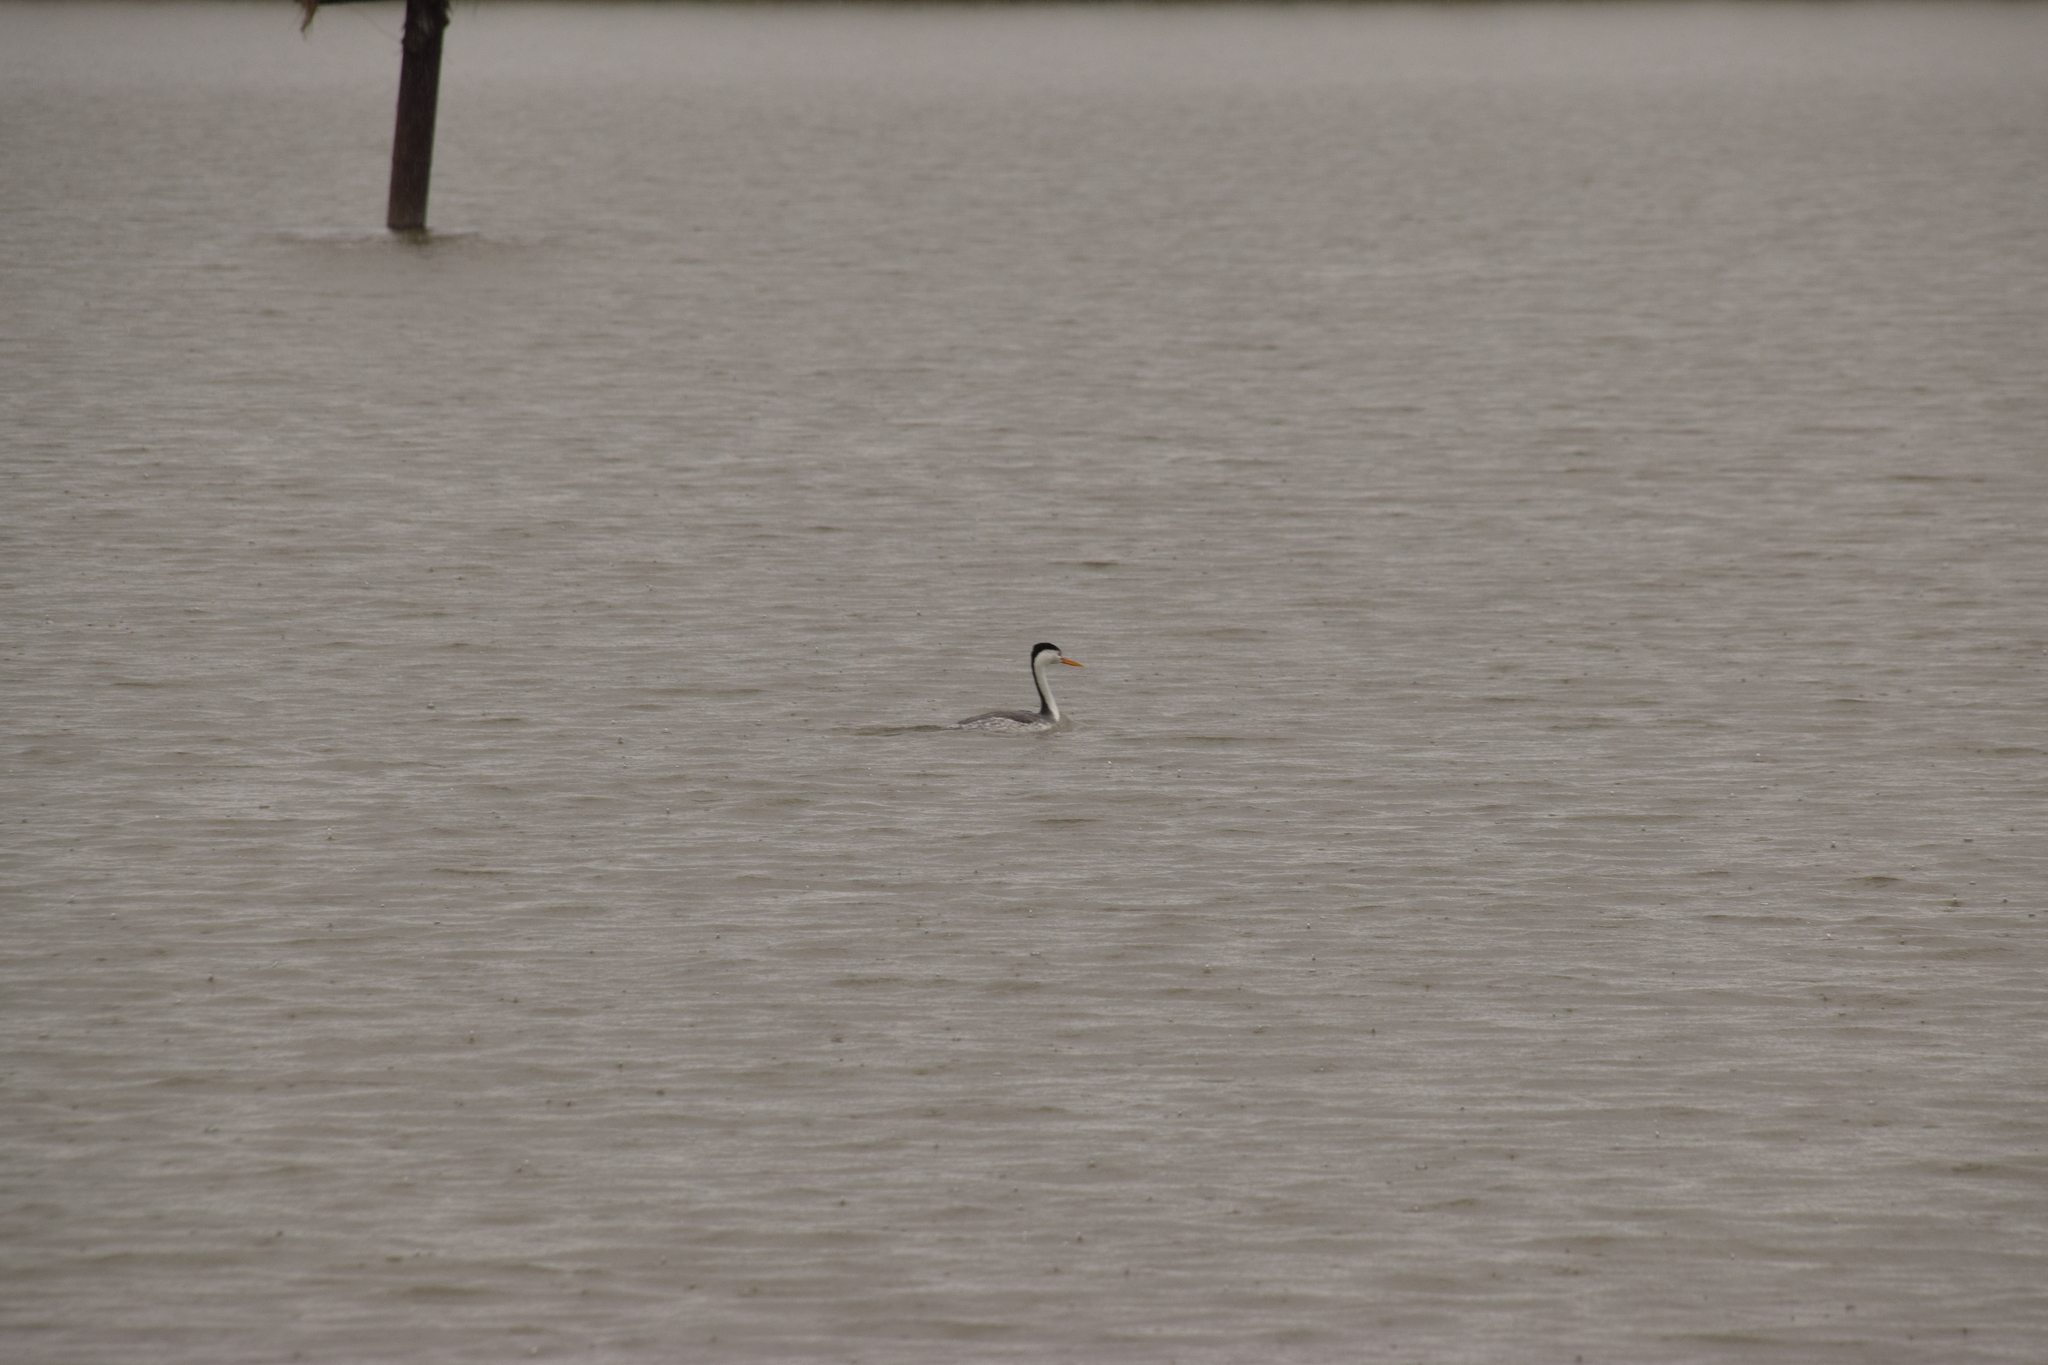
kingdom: Animalia
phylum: Chordata
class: Aves
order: Podicipediformes
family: Podicipedidae
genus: Aechmophorus
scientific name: Aechmophorus clarkii
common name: Clark's grebe
